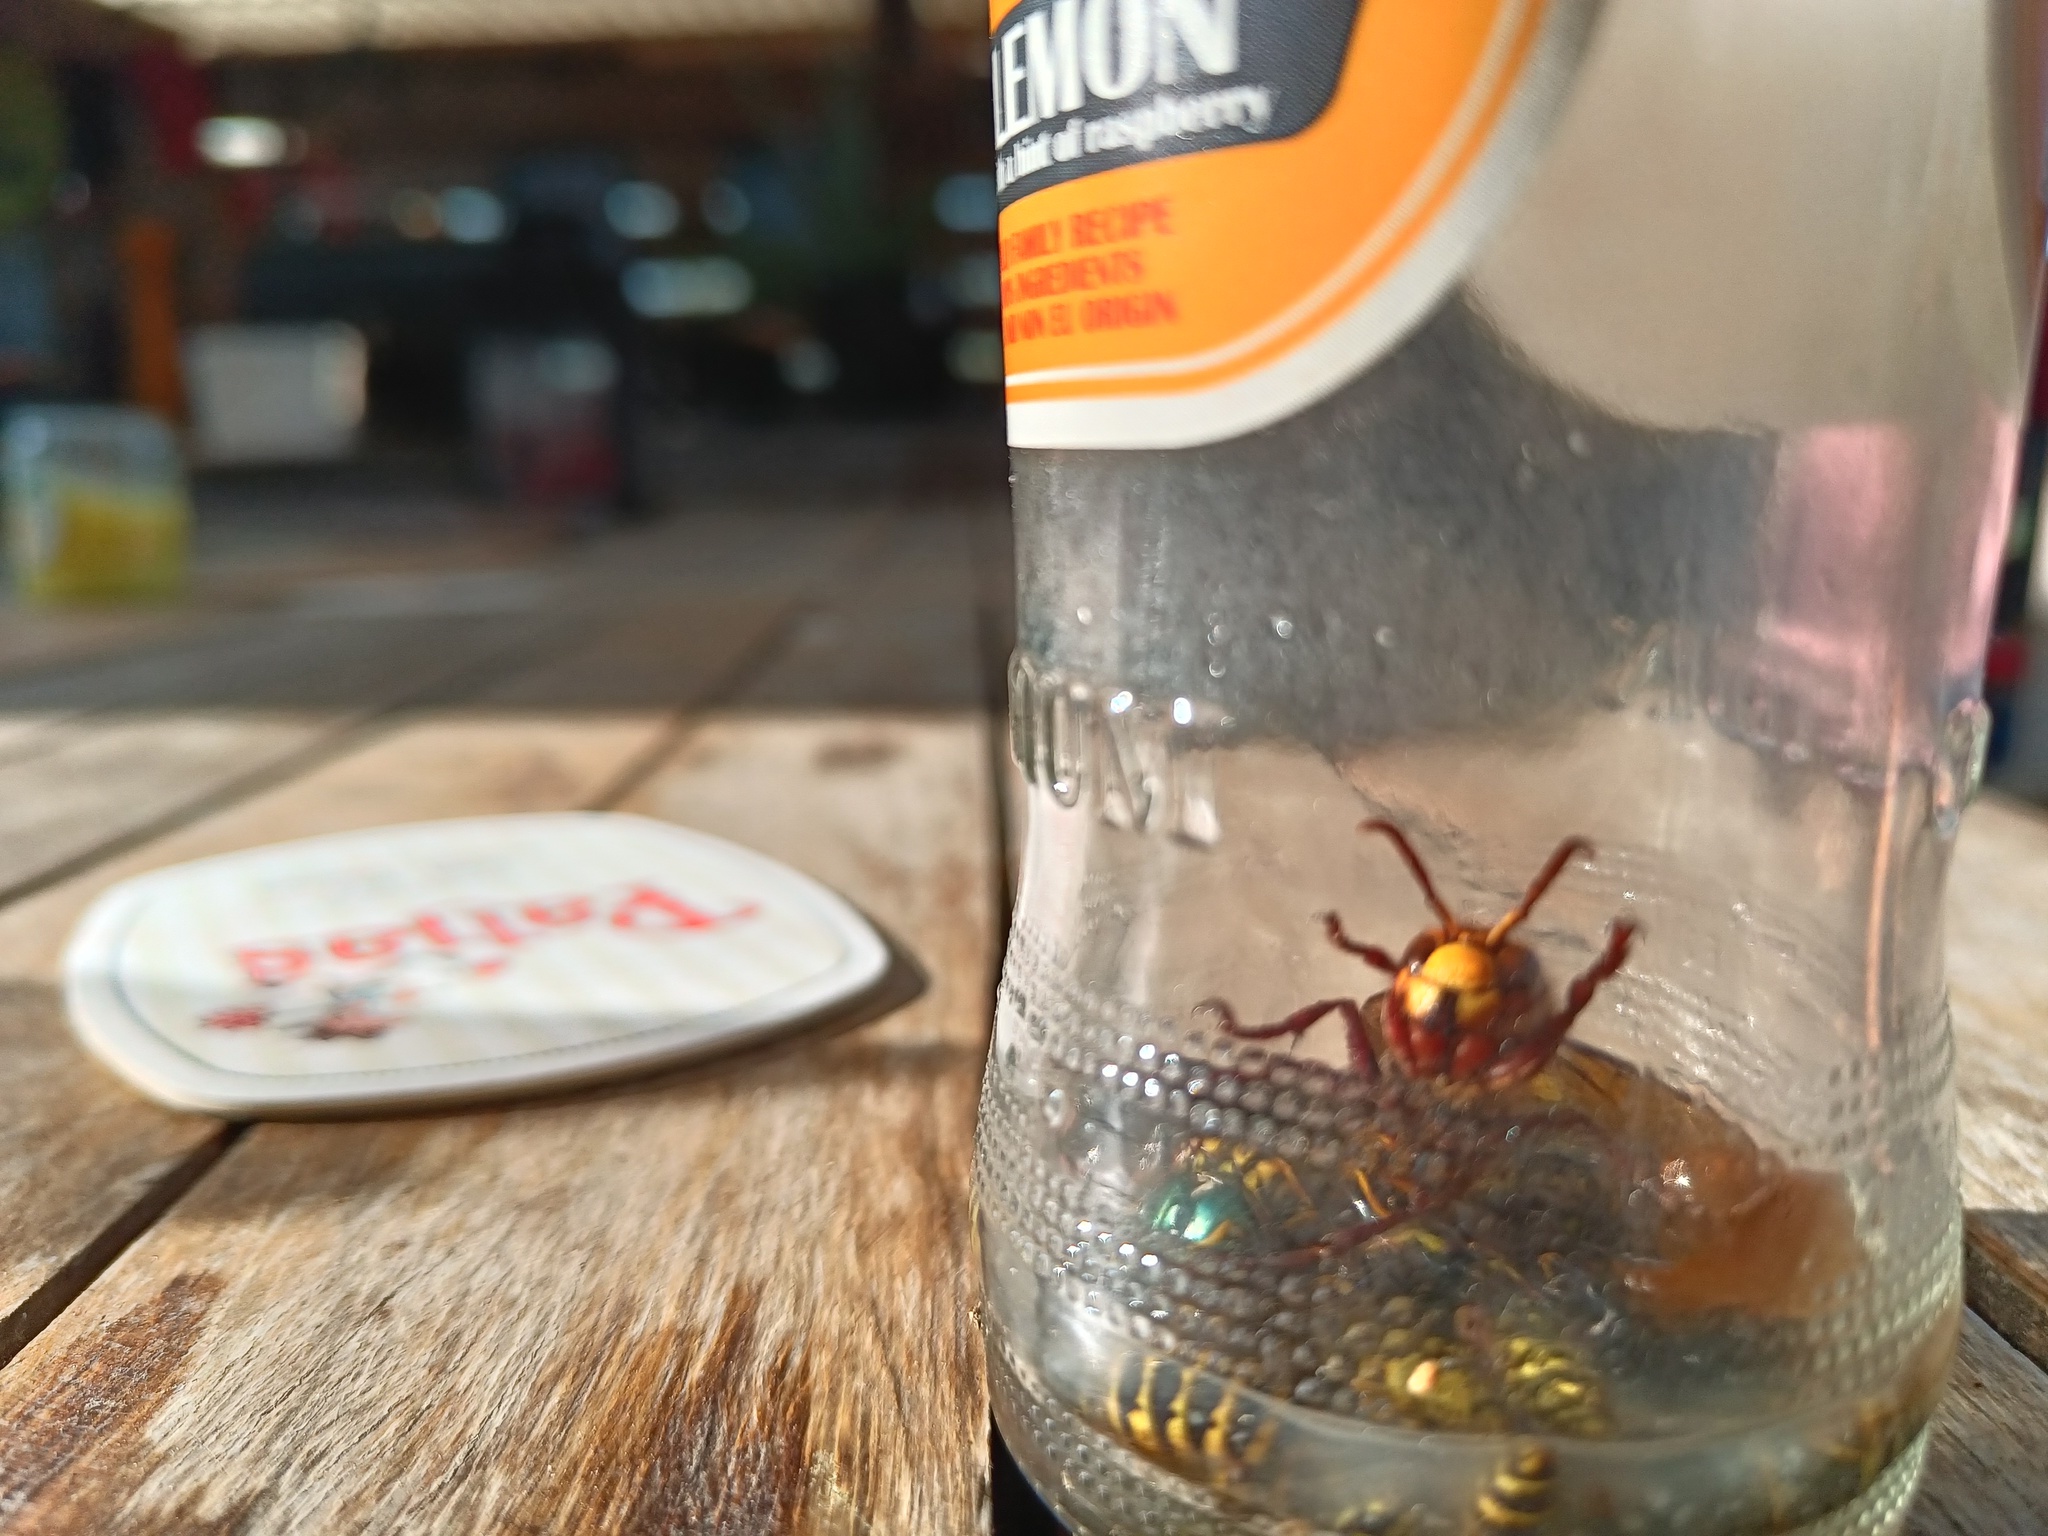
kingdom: Animalia
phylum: Arthropoda
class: Insecta
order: Hymenoptera
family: Vespidae
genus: Vespa
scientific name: Vespa crabro
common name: Hornet
